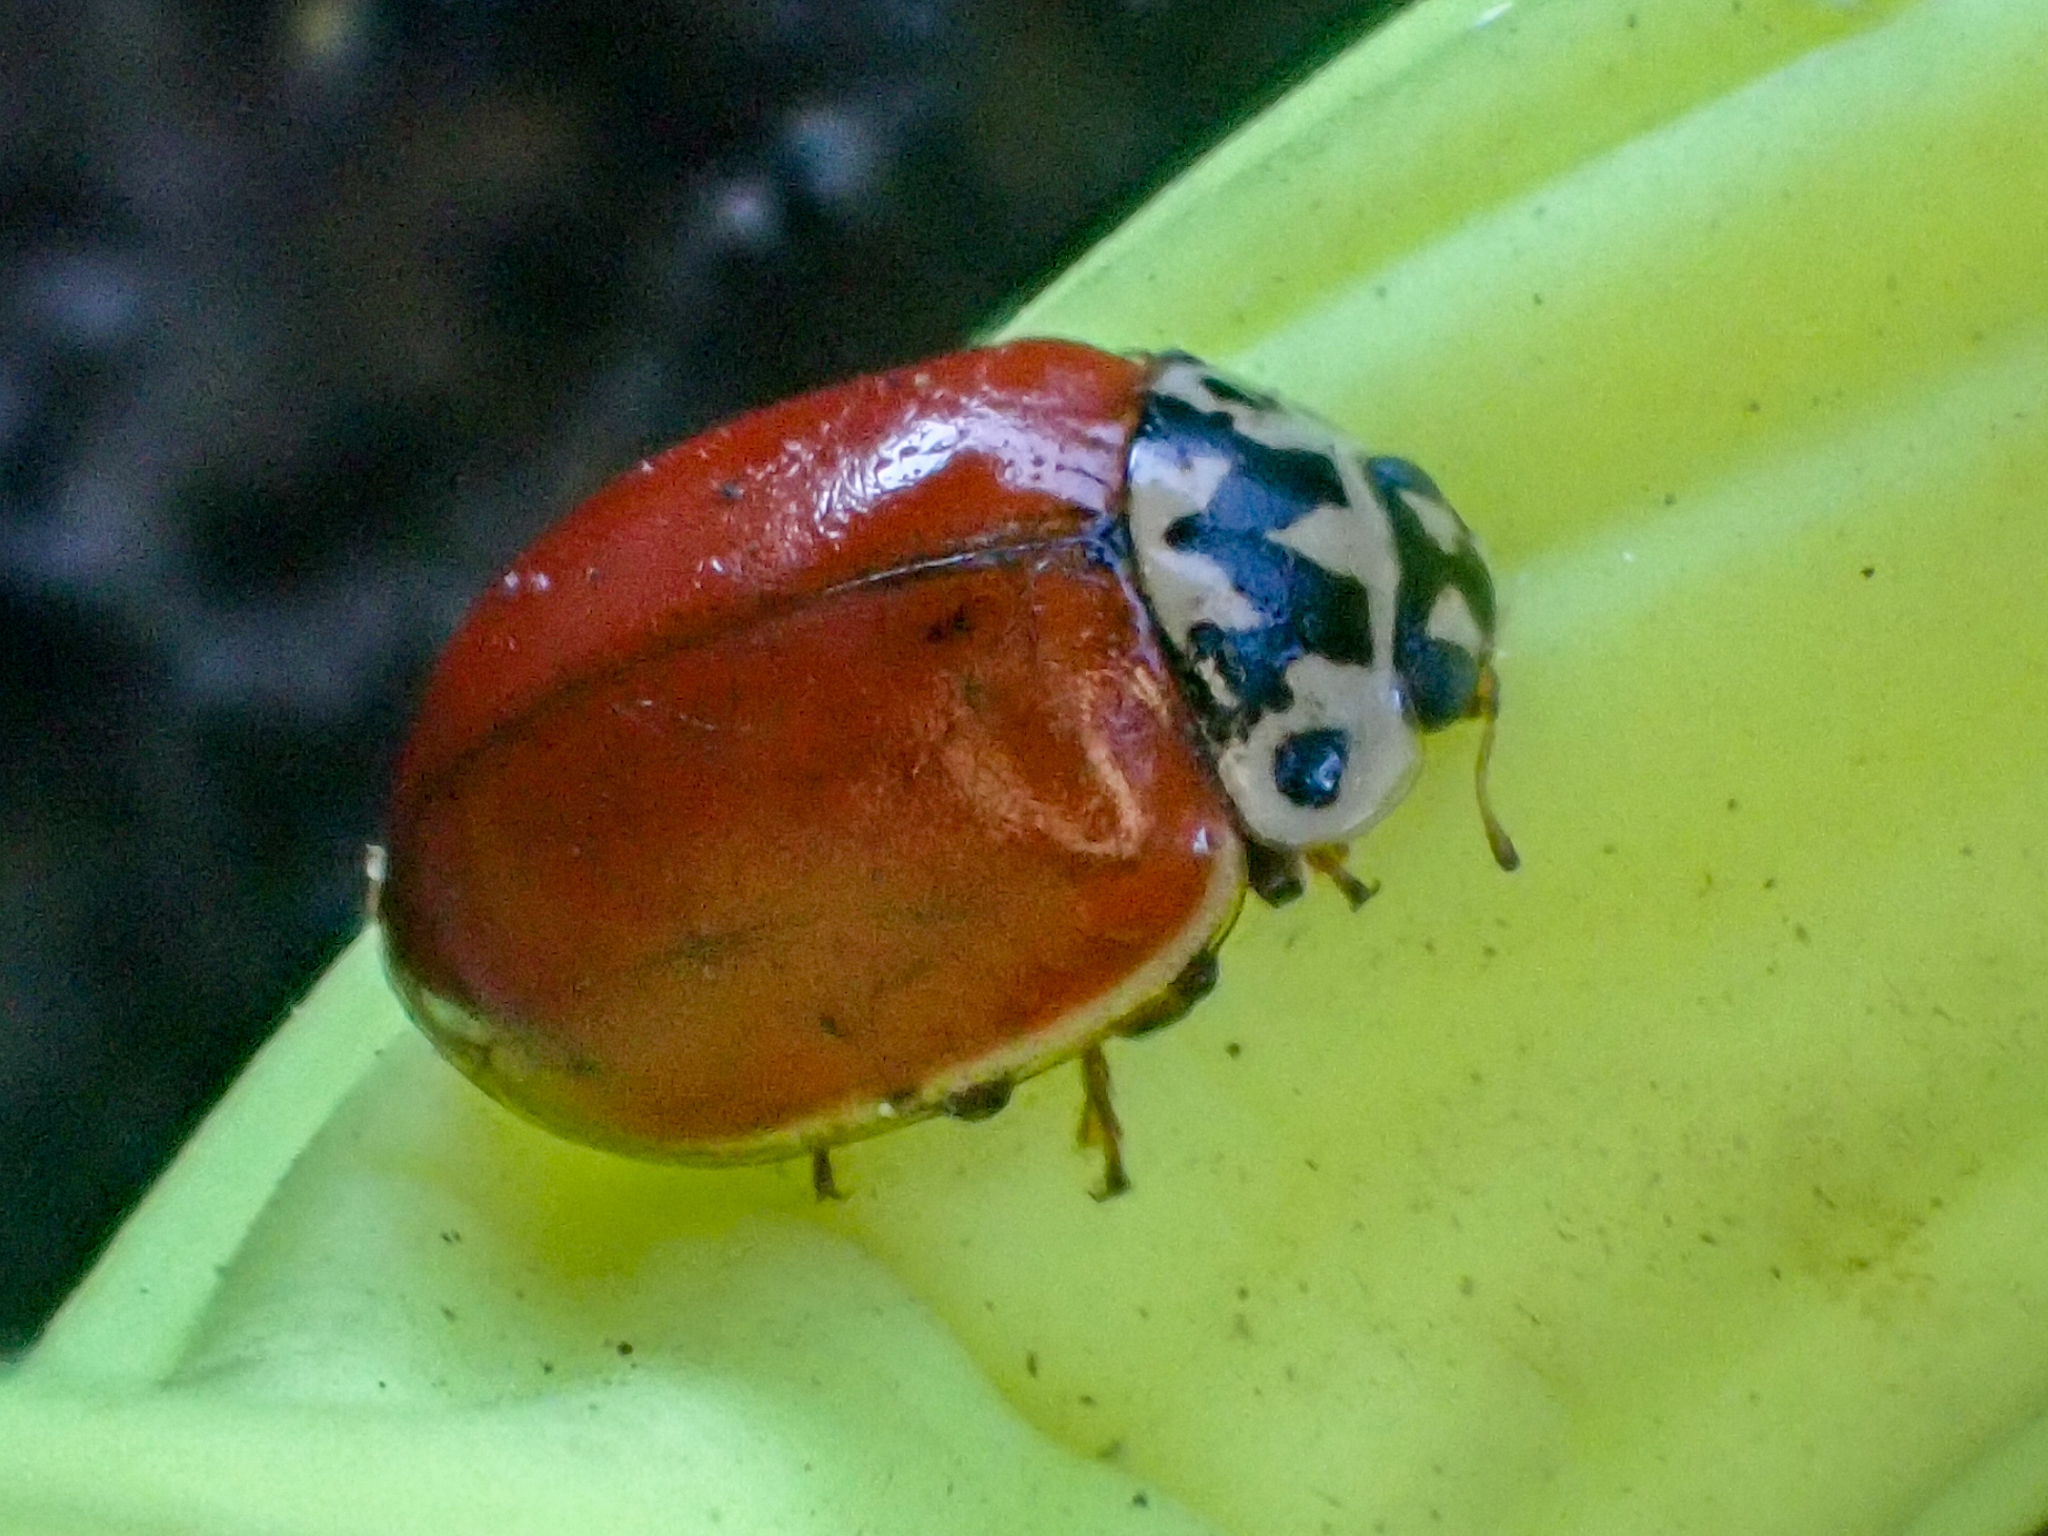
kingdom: Animalia
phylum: Arthropoda
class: Insecta
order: Coleoptera
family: Coccinellidae
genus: Adalia
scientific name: Adalia bipunctata
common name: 2-spot ladybird
